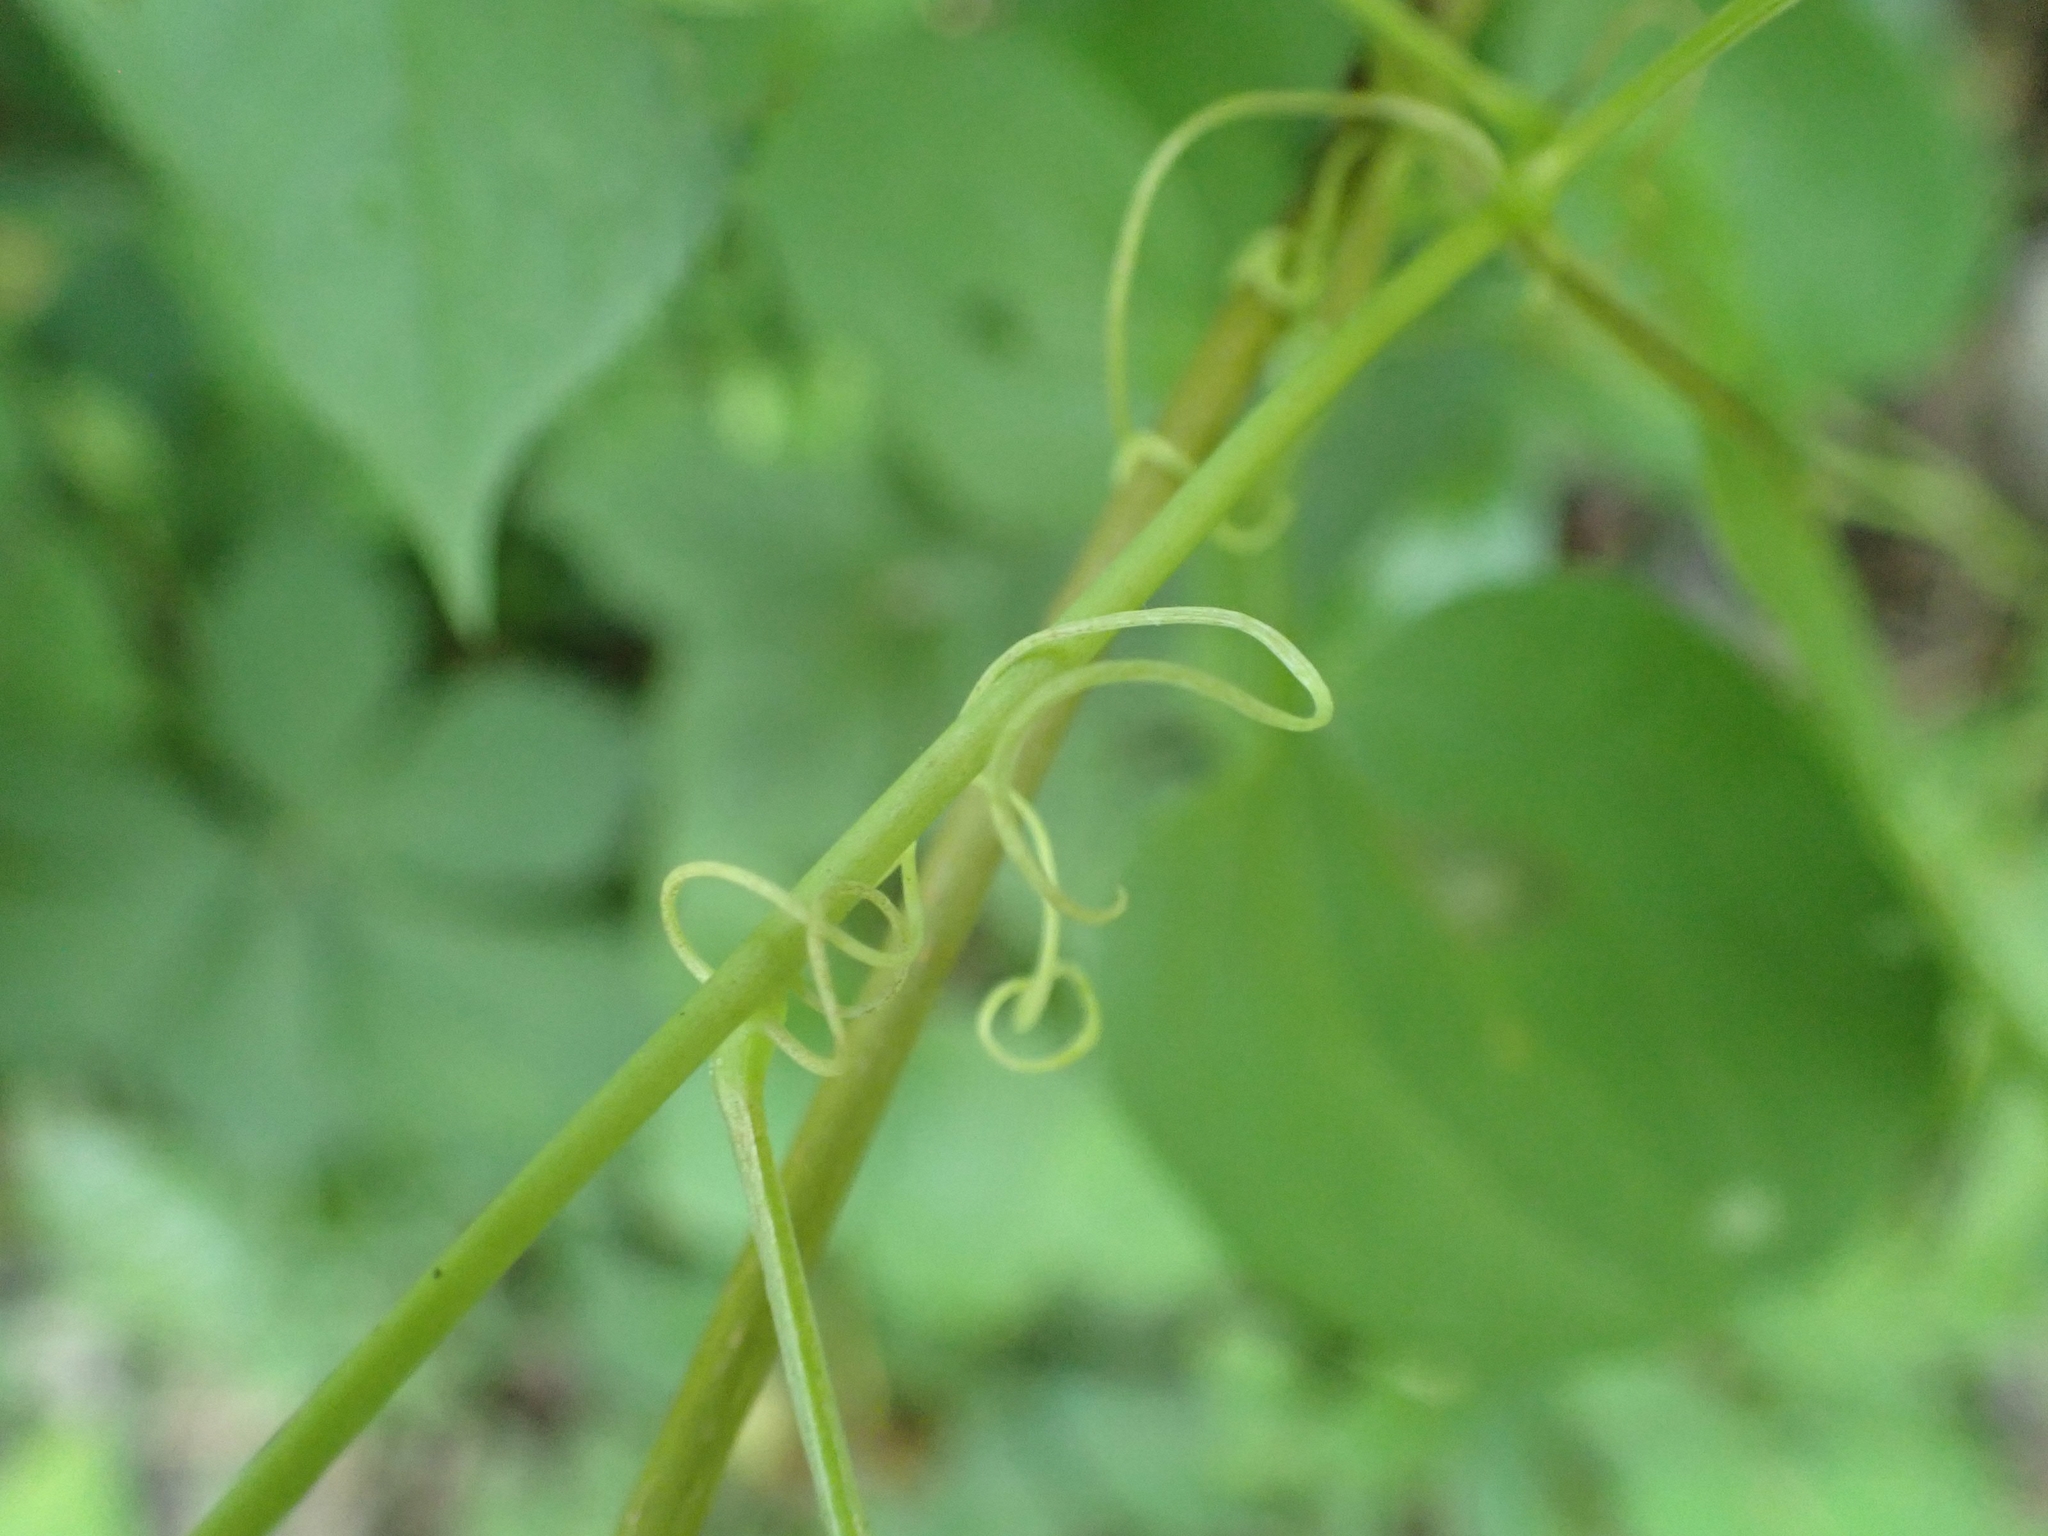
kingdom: Plantae
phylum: Tracheophyta
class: Liliopsida
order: Liliales
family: Smilacaceae
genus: Smilax
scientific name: Smilax lasioneura
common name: Blue ridge carrionflower
